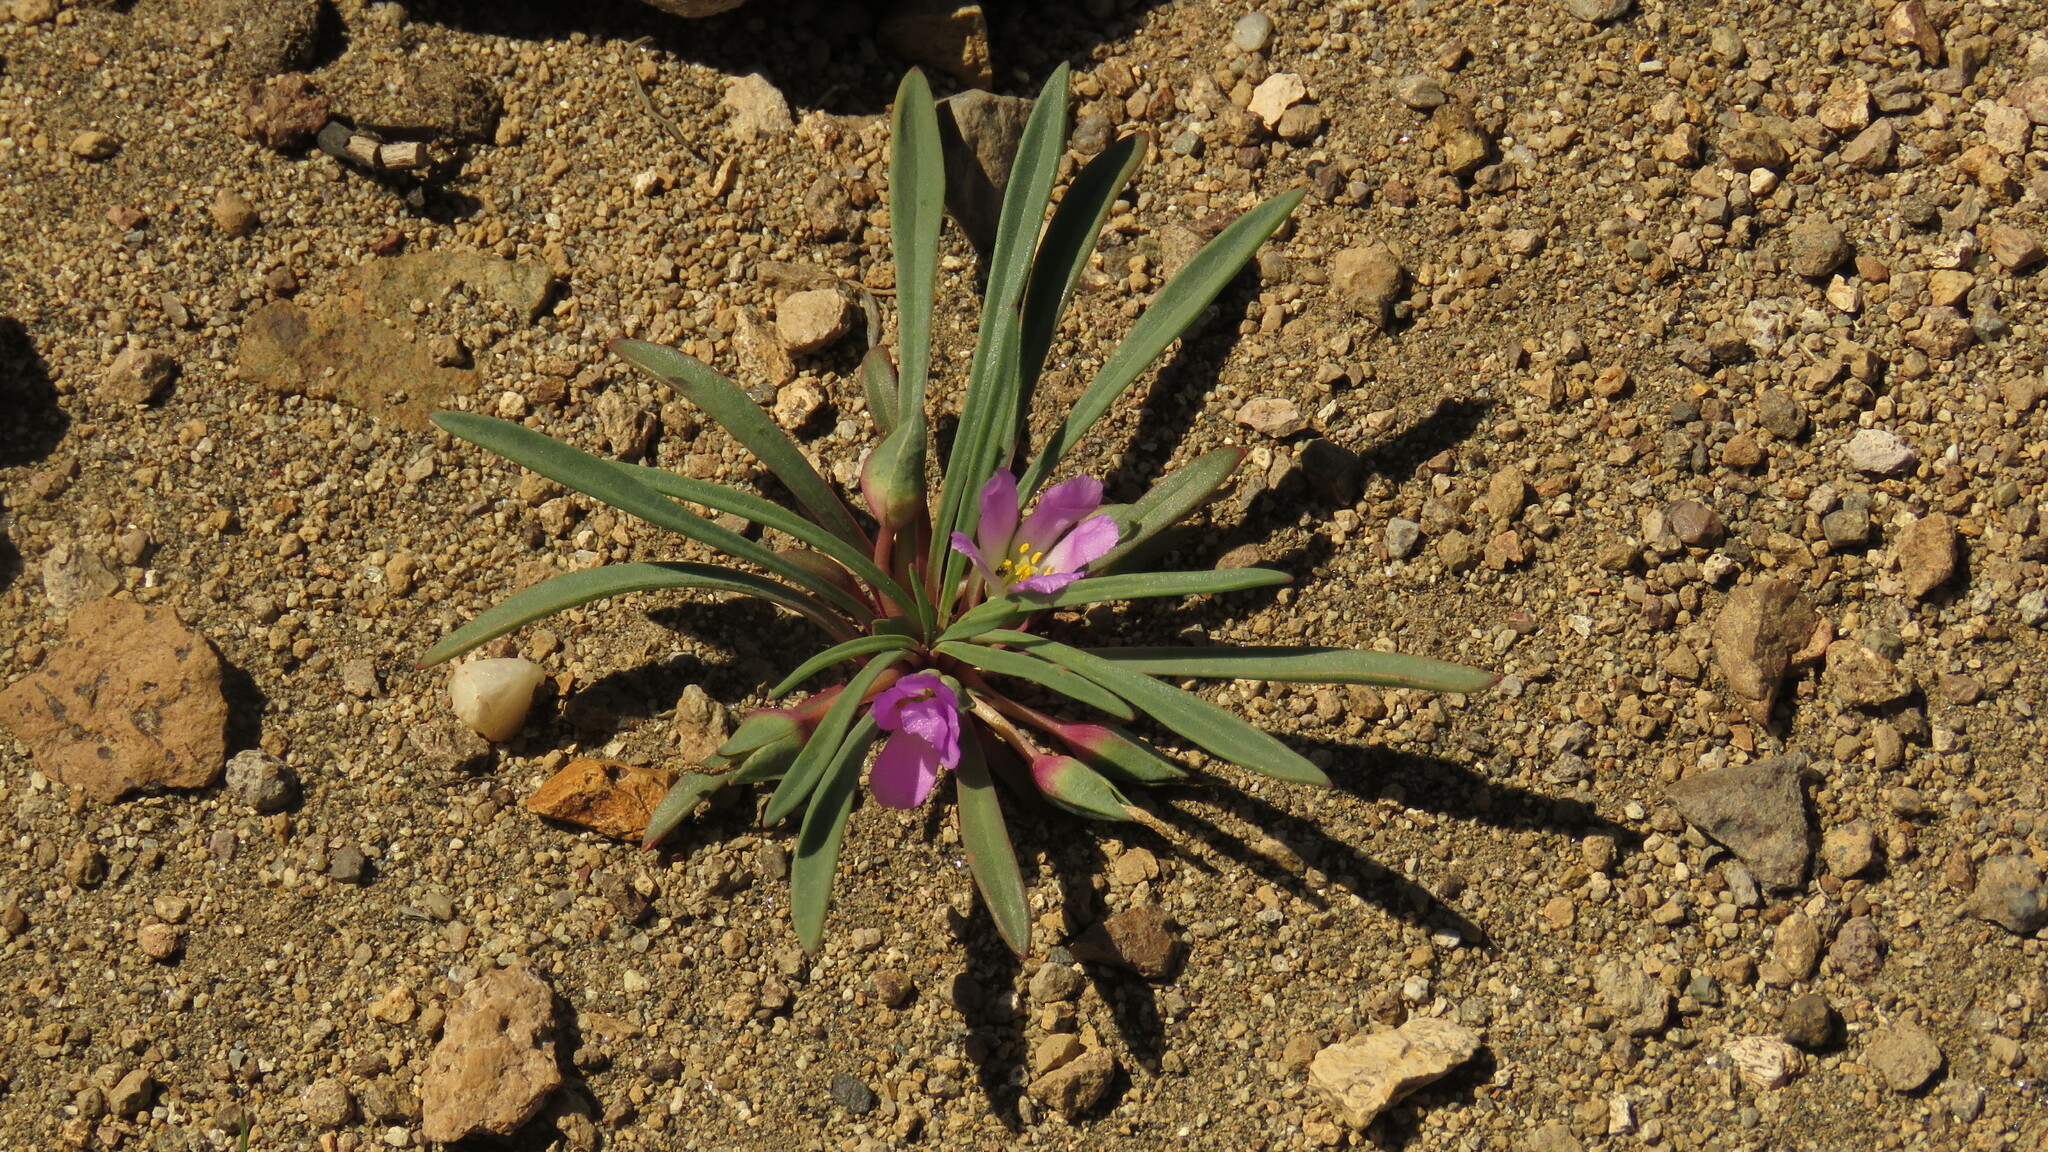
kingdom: Plantae
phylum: Tracheophyta
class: Magnoliopsida
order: Caryophyllales
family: Montiaceae
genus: Calandrinia
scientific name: Calandrinia colchaguensis
